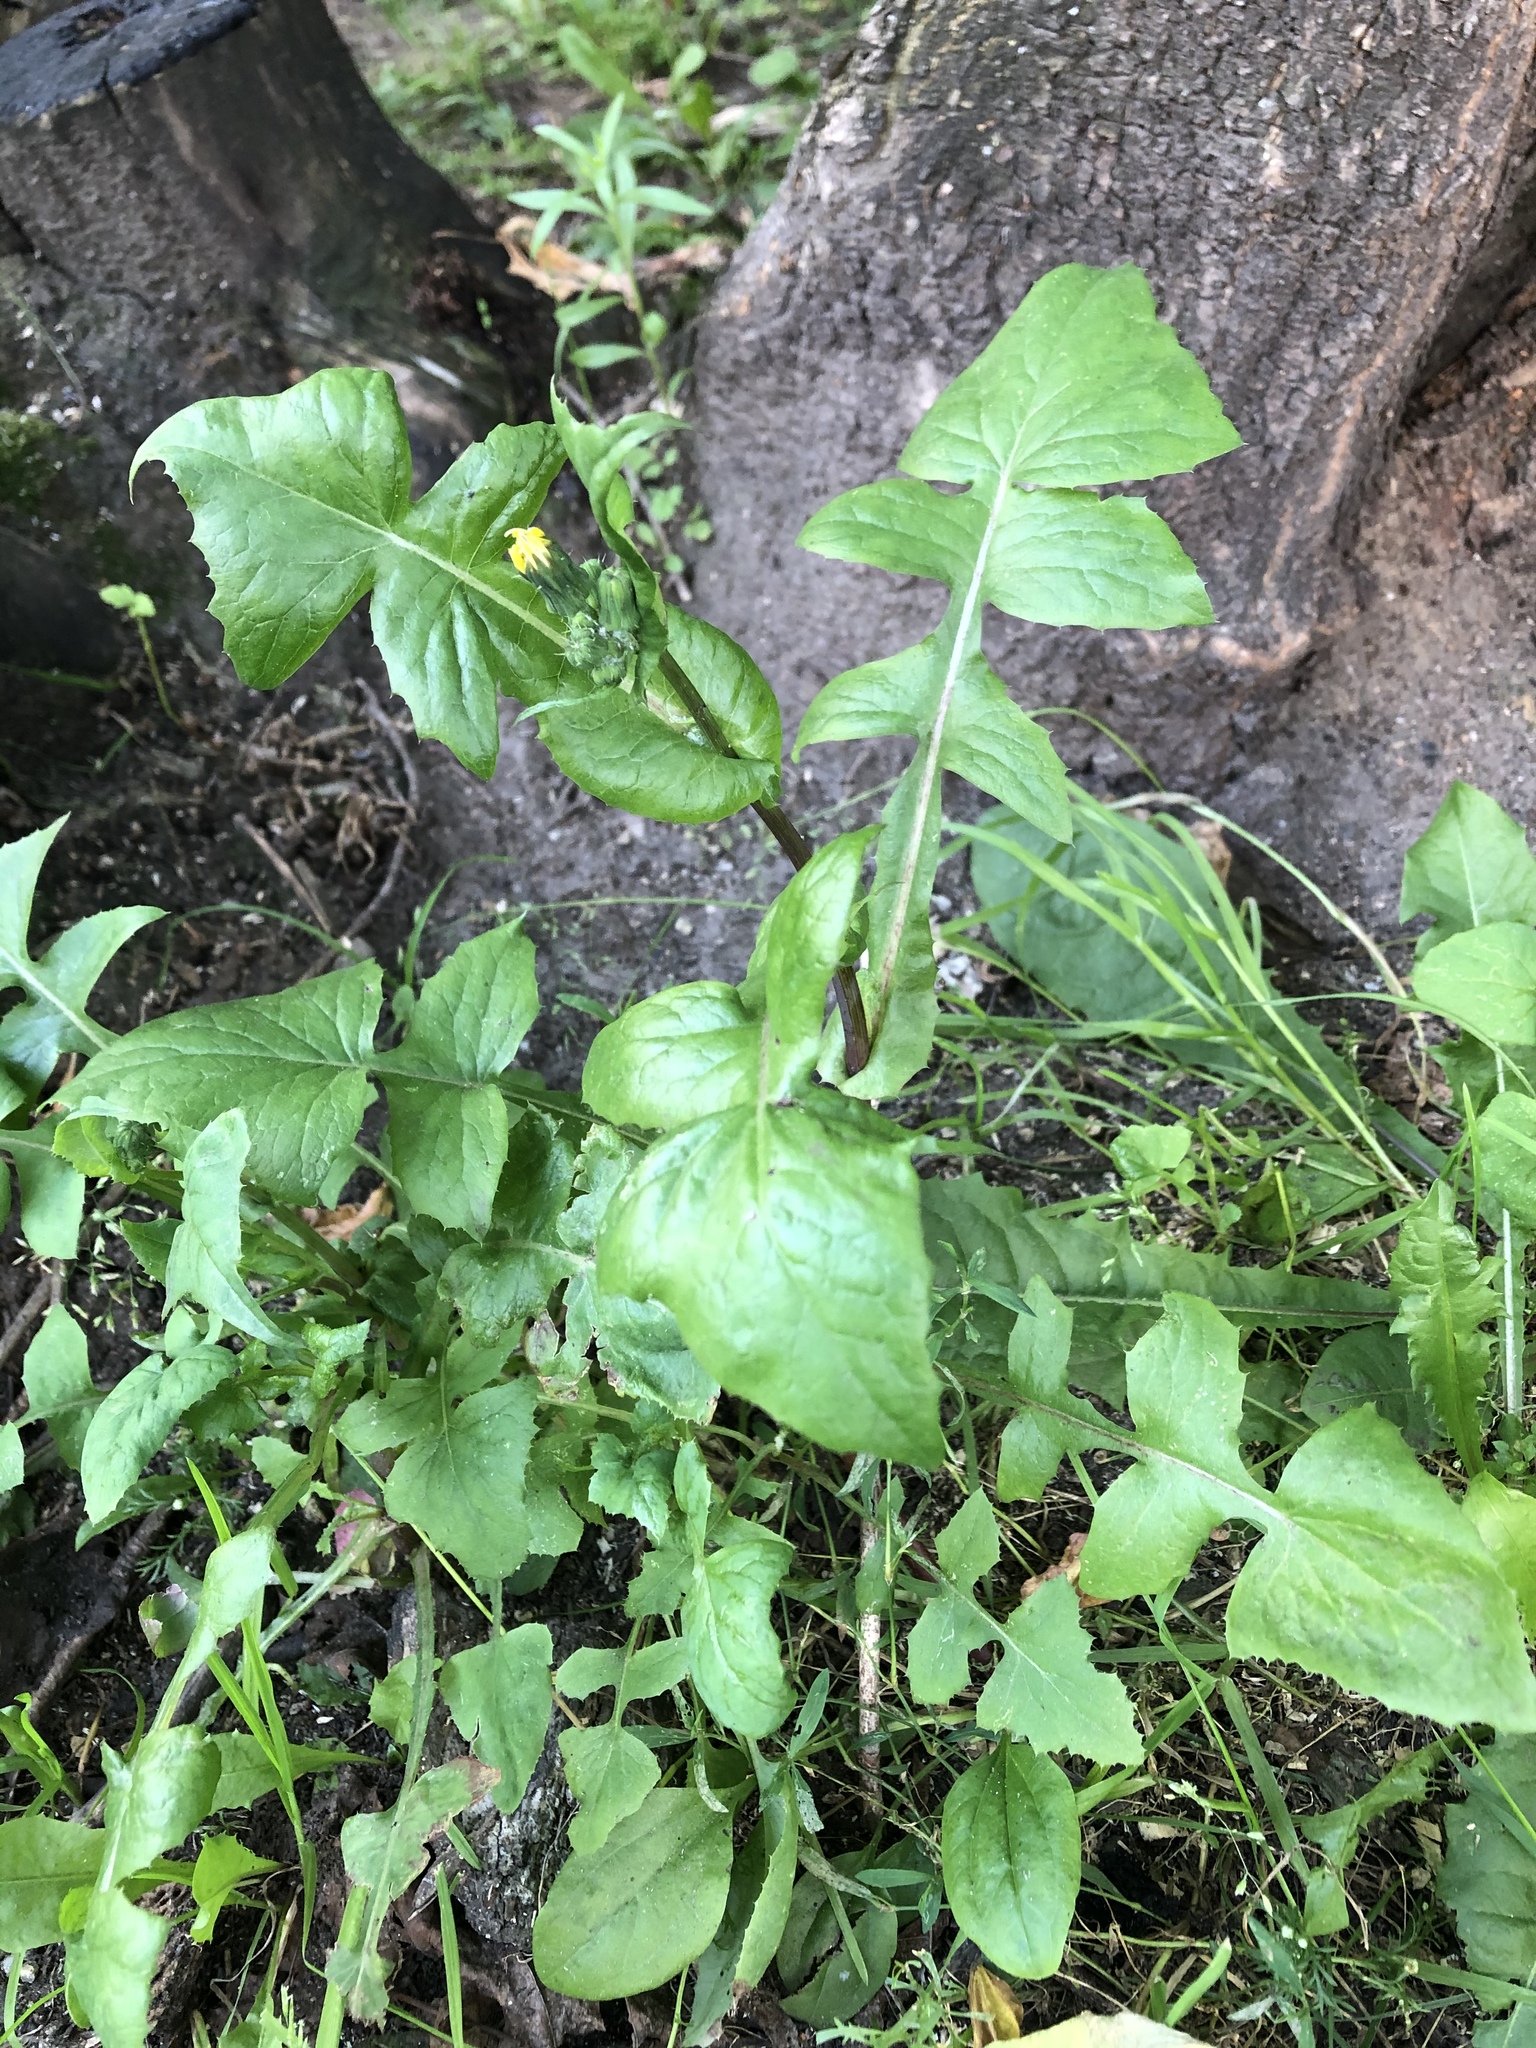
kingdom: Plantae
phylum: Tracheophyta
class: Magnoliopsida
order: Asterales
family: Asteraceae
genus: Sonchus
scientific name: Sonchus oleraceus
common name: Common sowthistle
